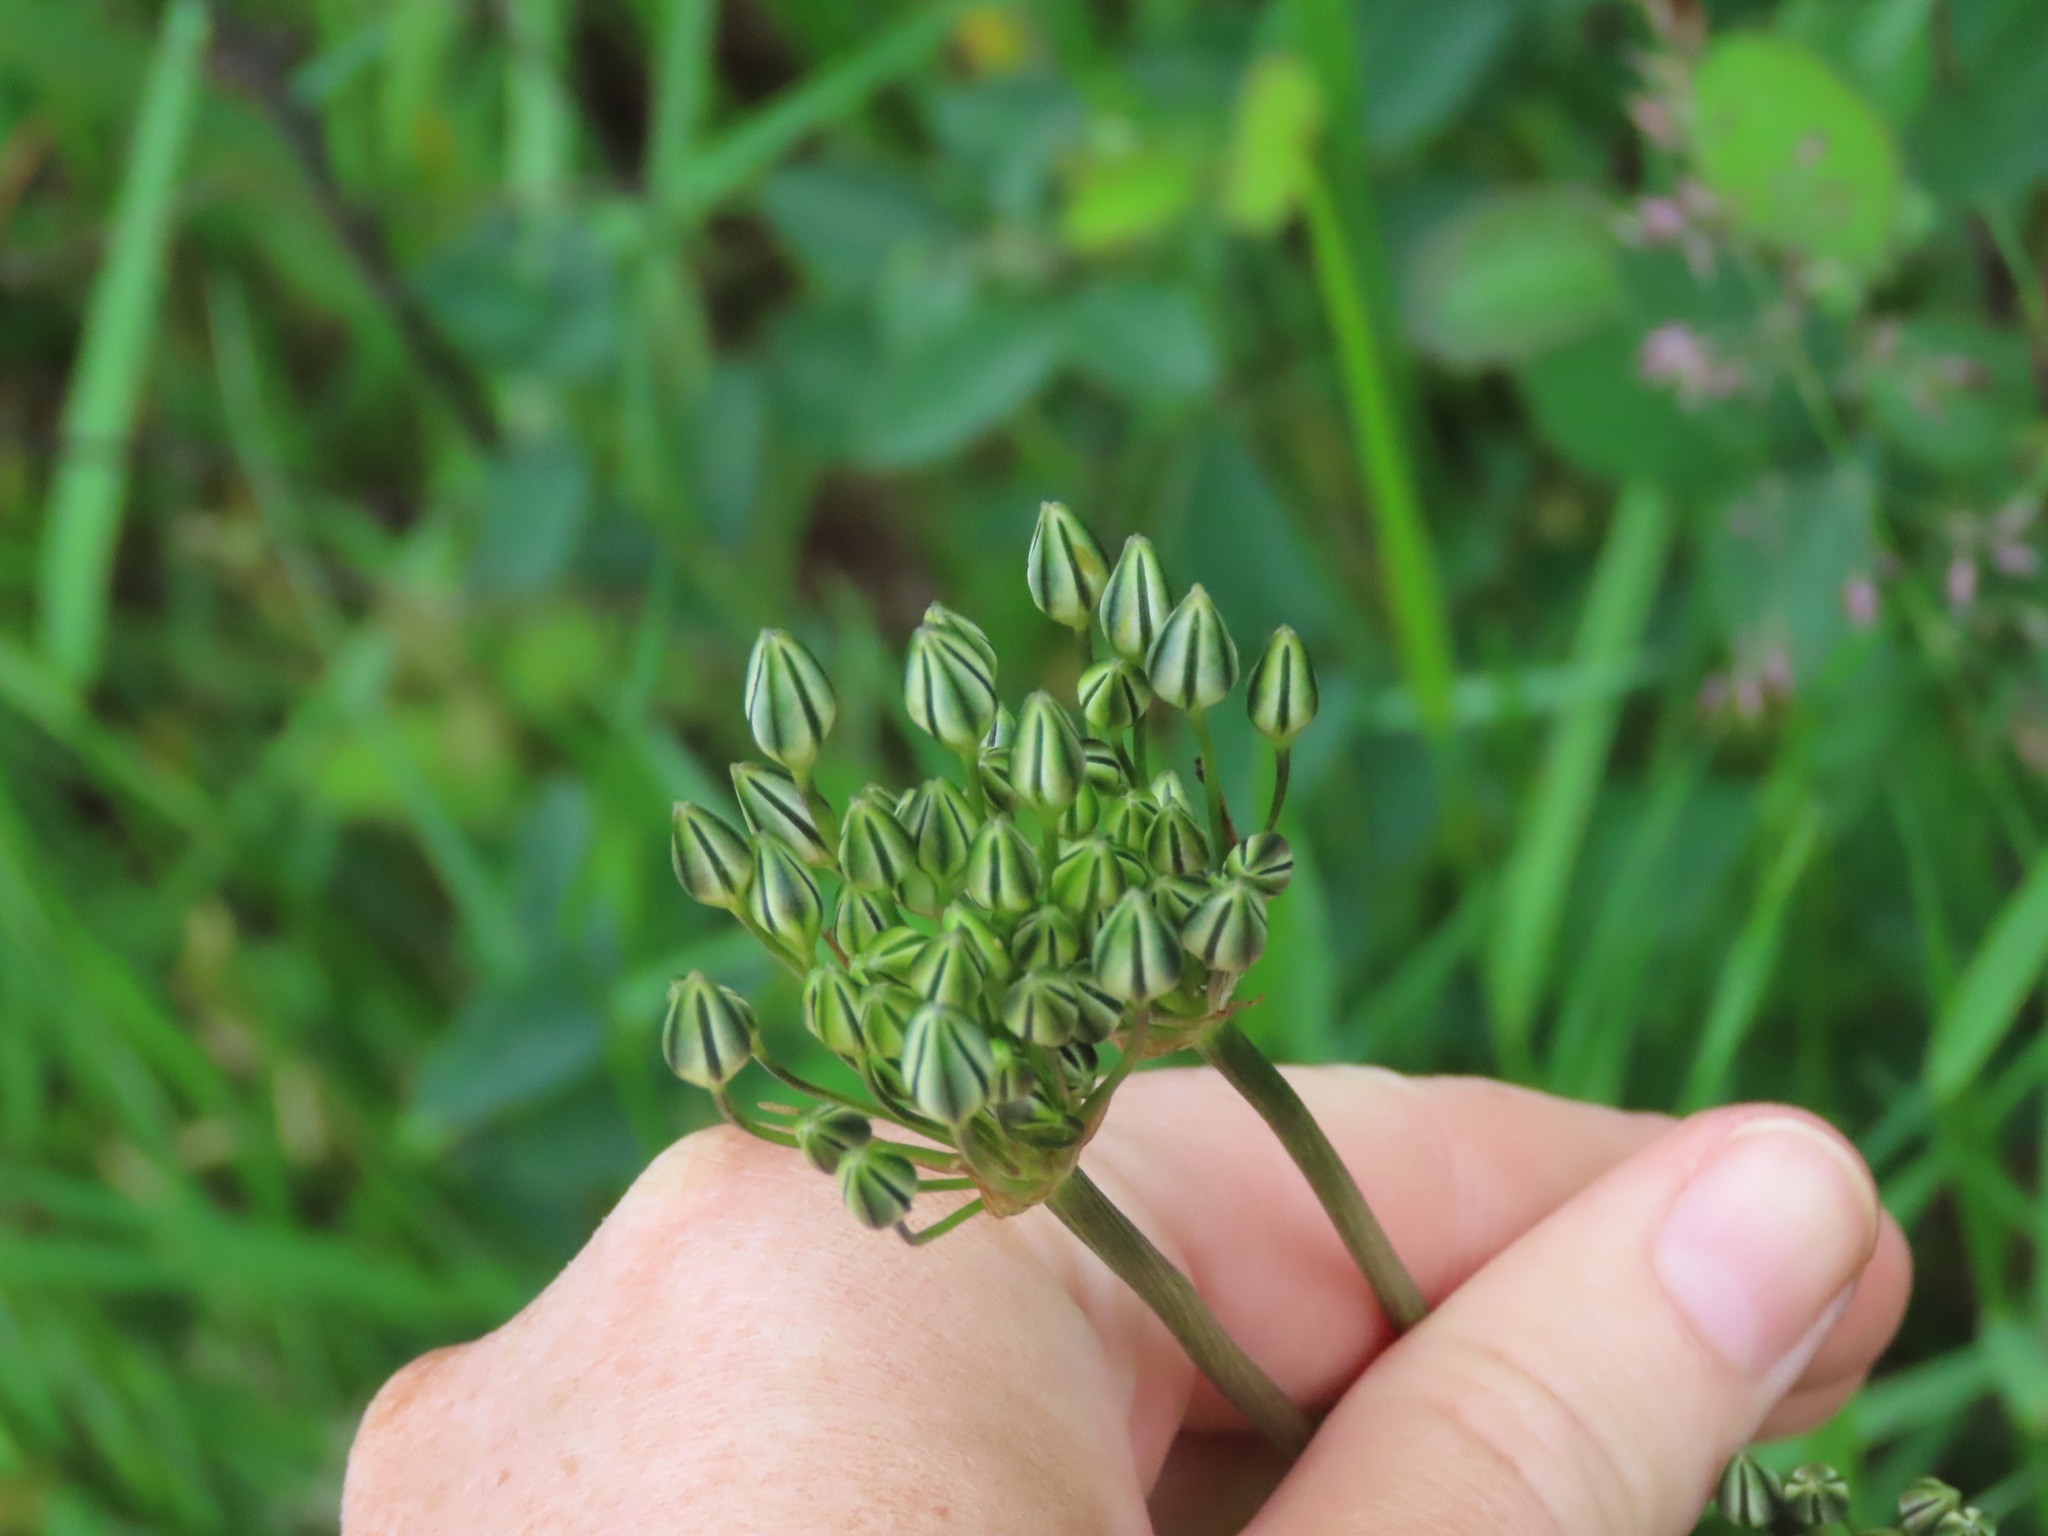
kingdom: Plantae
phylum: Tracheophyta
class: Liliopsida
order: Asparagales
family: Asparagaceae
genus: Triteleia
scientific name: Triteleia hyacinthina
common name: White brodiaea
